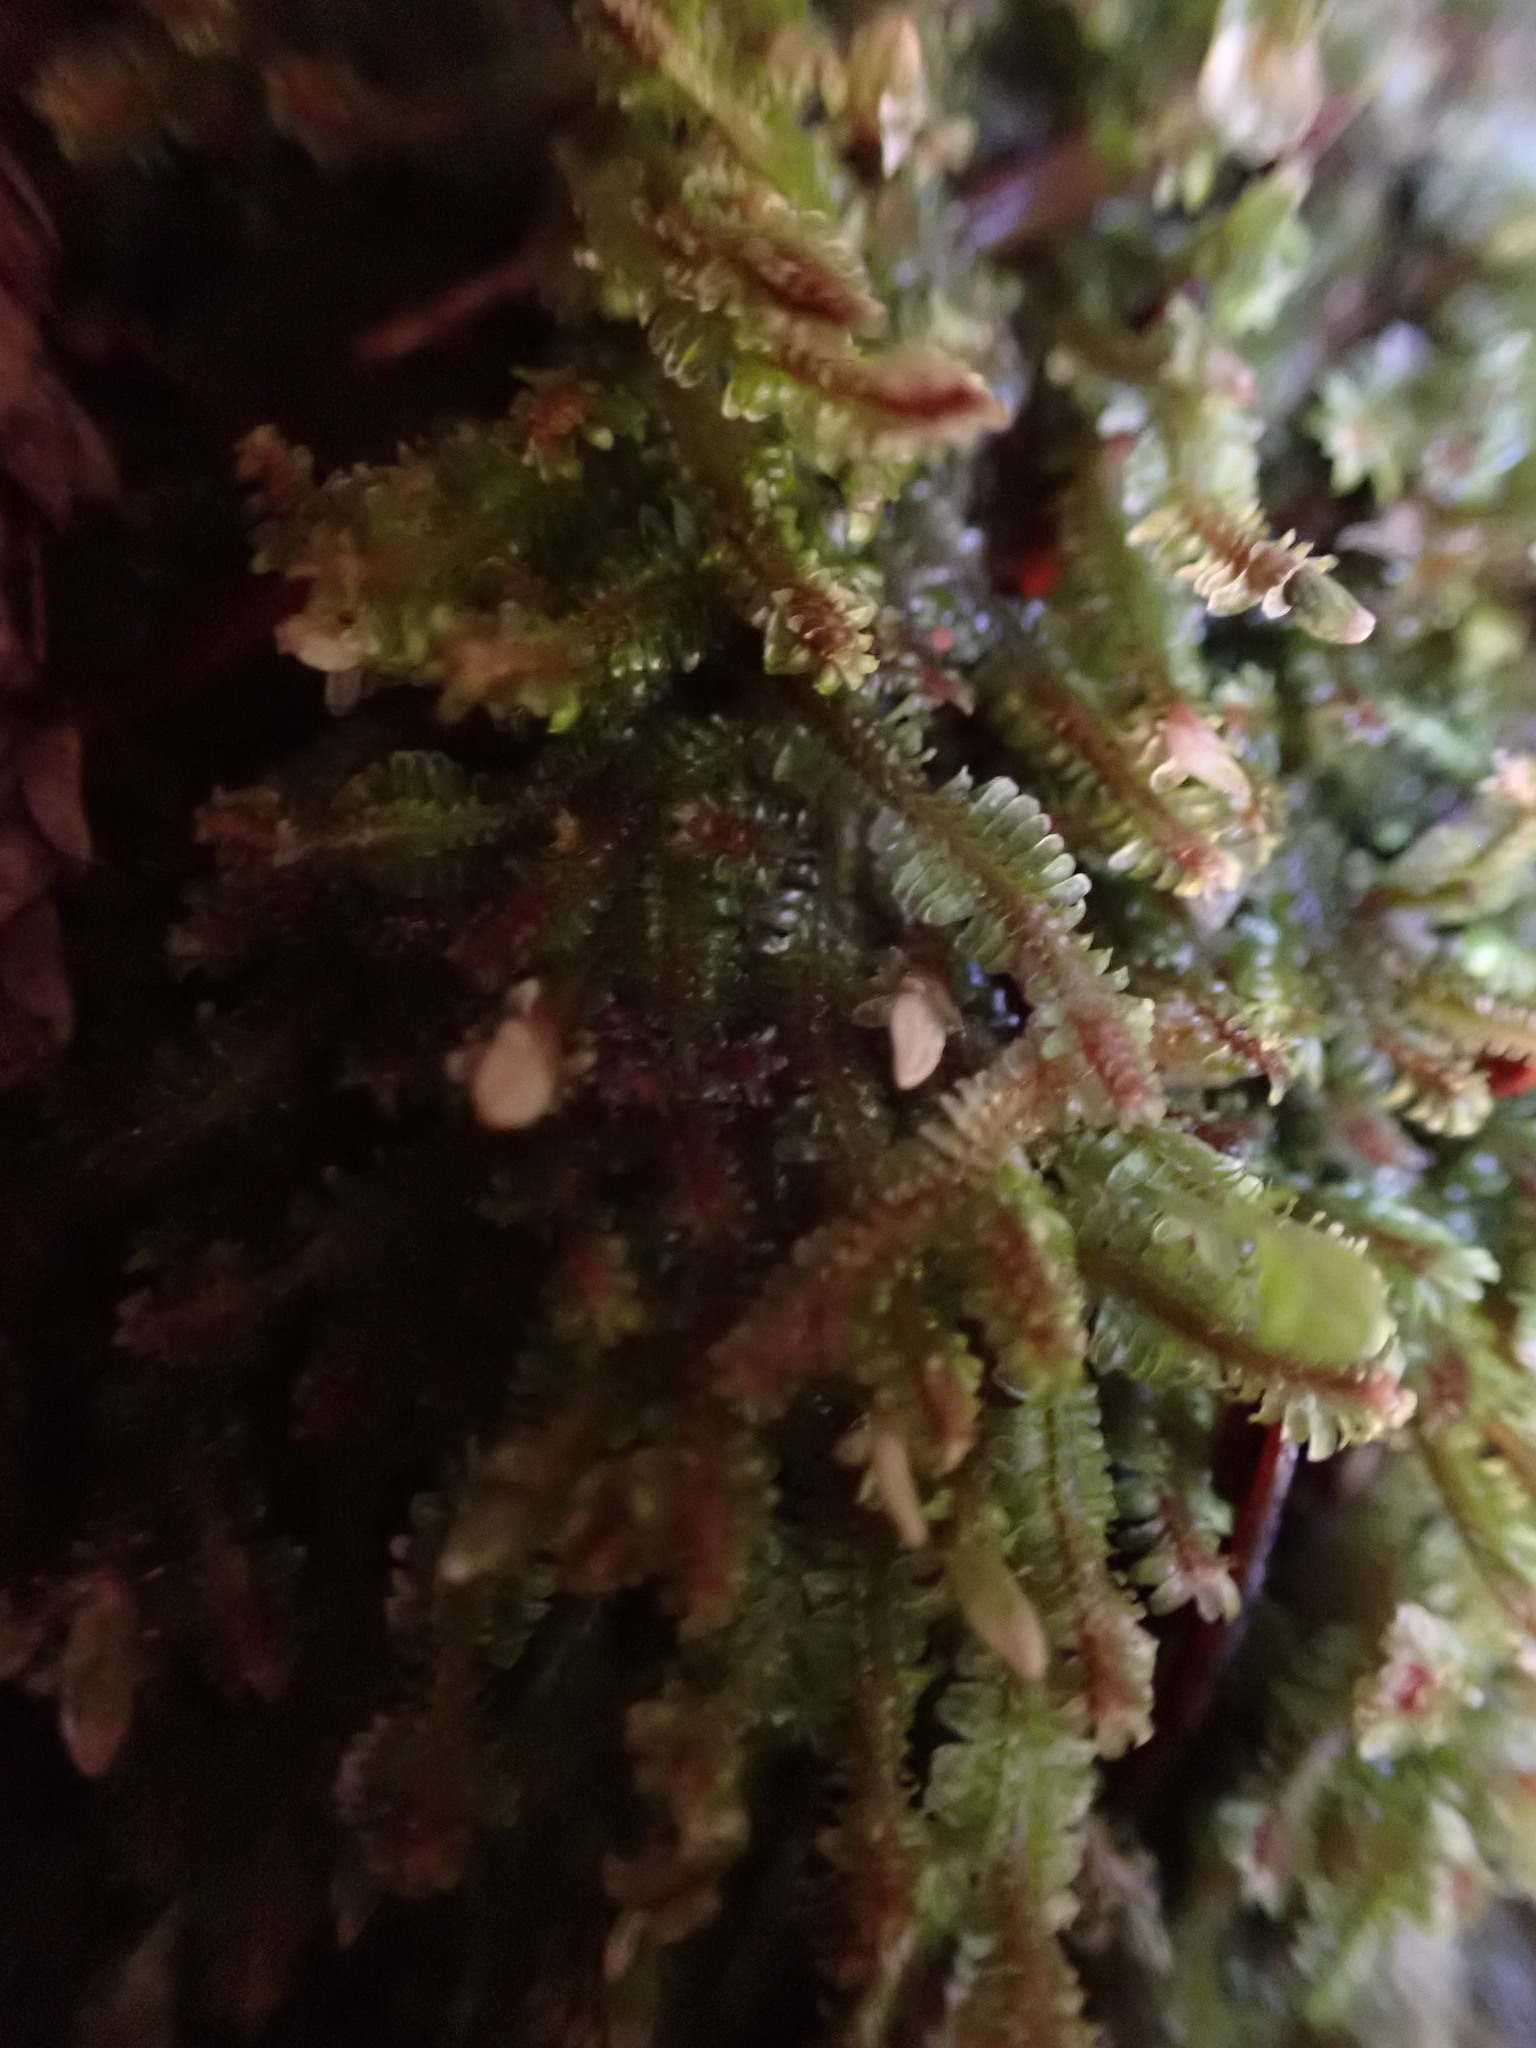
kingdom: Plantae
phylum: Marchantiophyta
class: Jungermanniopsida
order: Jungermanniales
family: Scapaniaceae
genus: Diplophyllum
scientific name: Diplophyllum albicans
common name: White earwort
